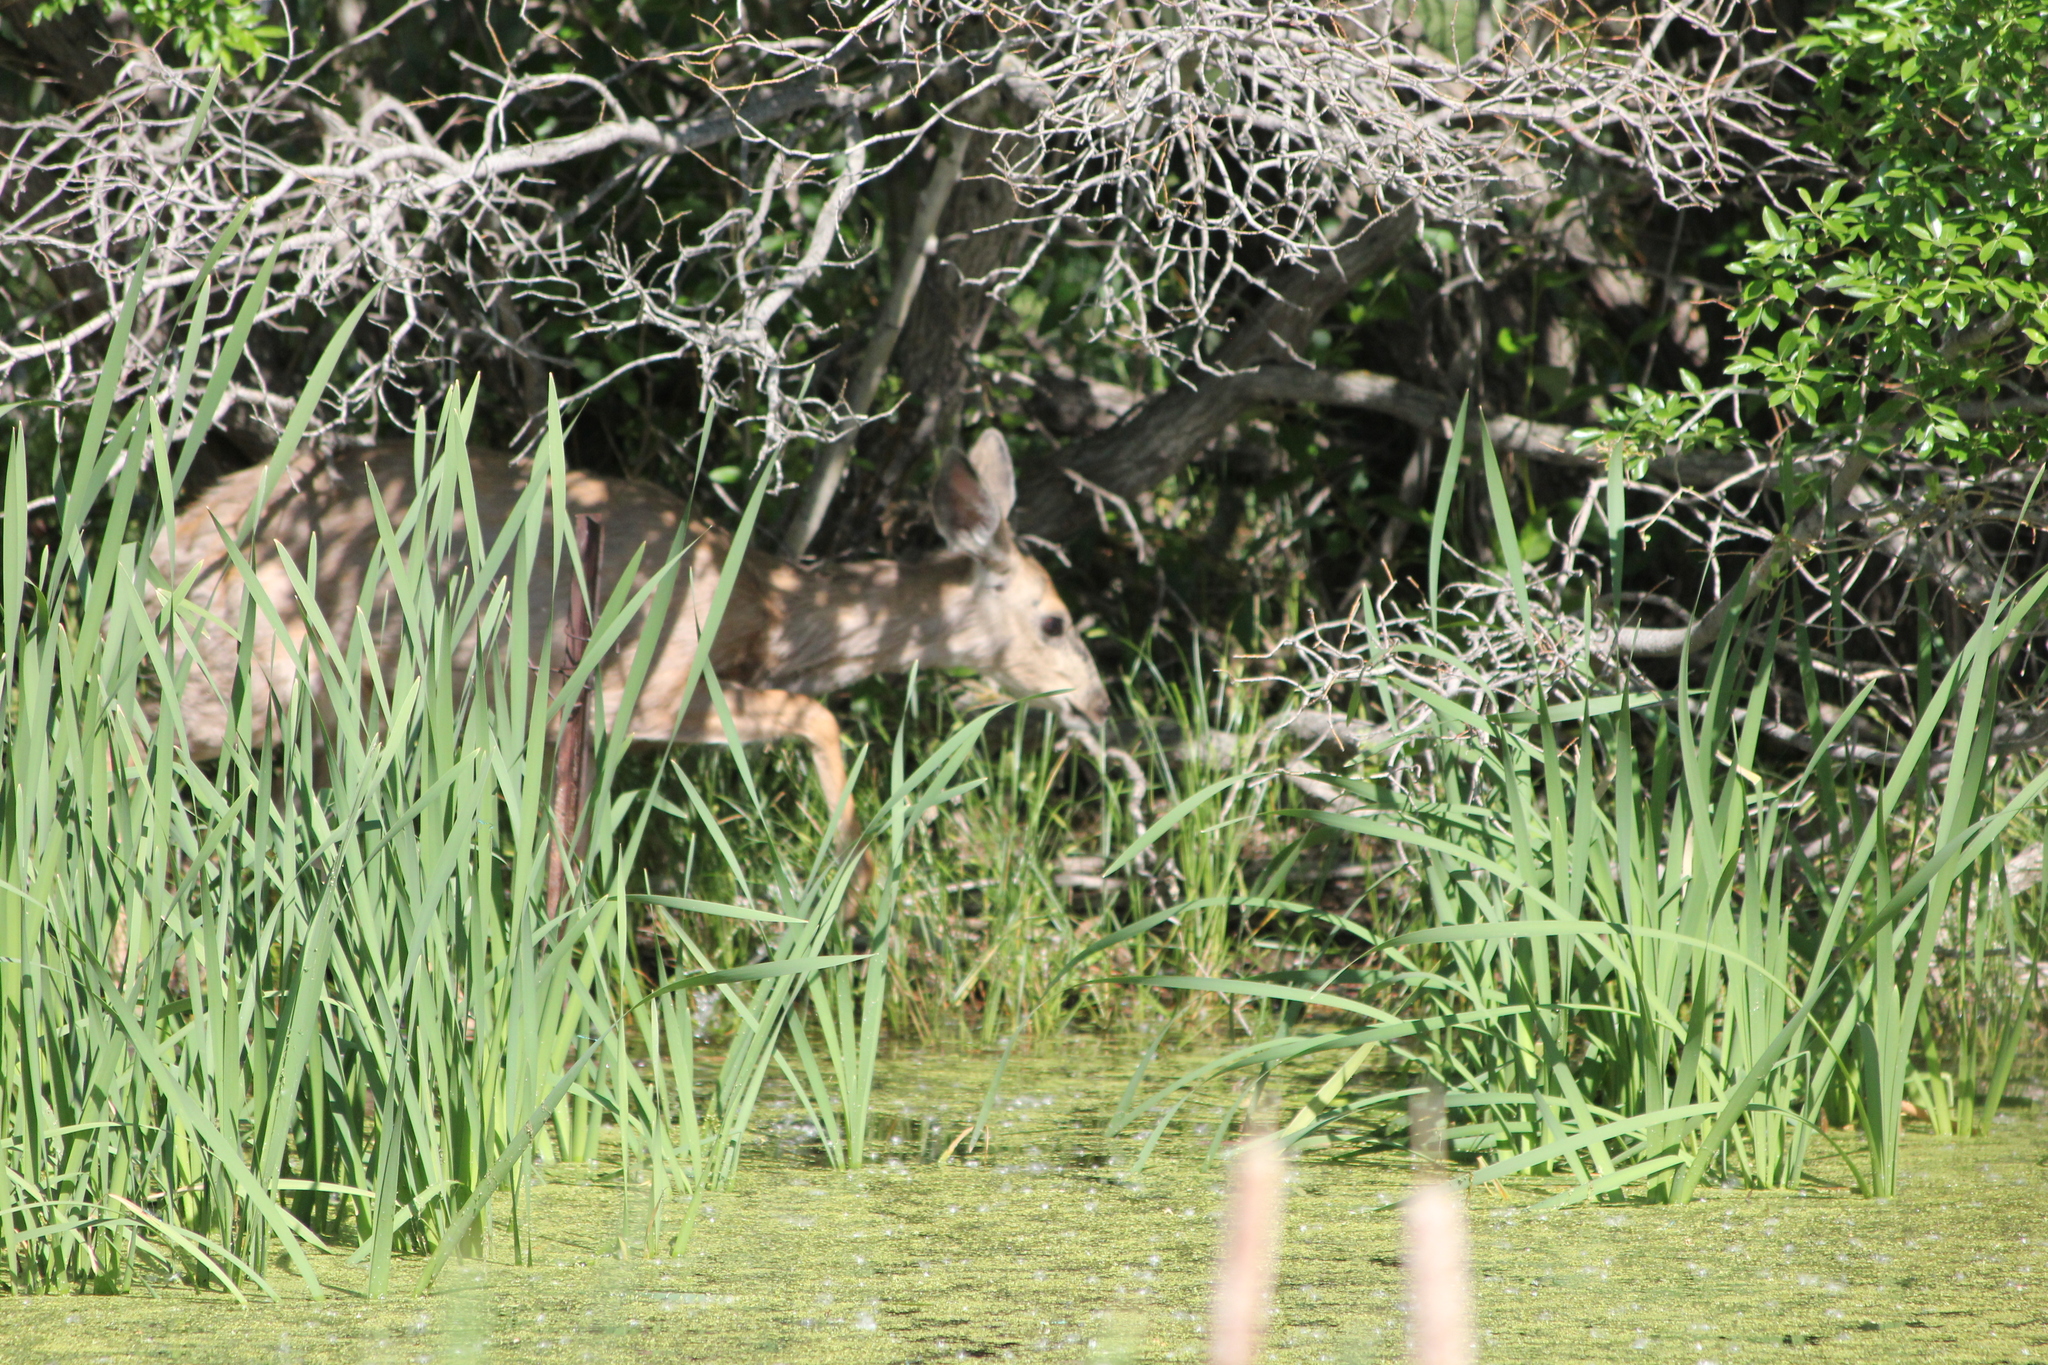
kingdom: Animalia
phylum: Chordata
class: Mammalia
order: Artiodactyla
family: Cervidae
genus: Odocoileus
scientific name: Odocoileus hemionus
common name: Mule deer
